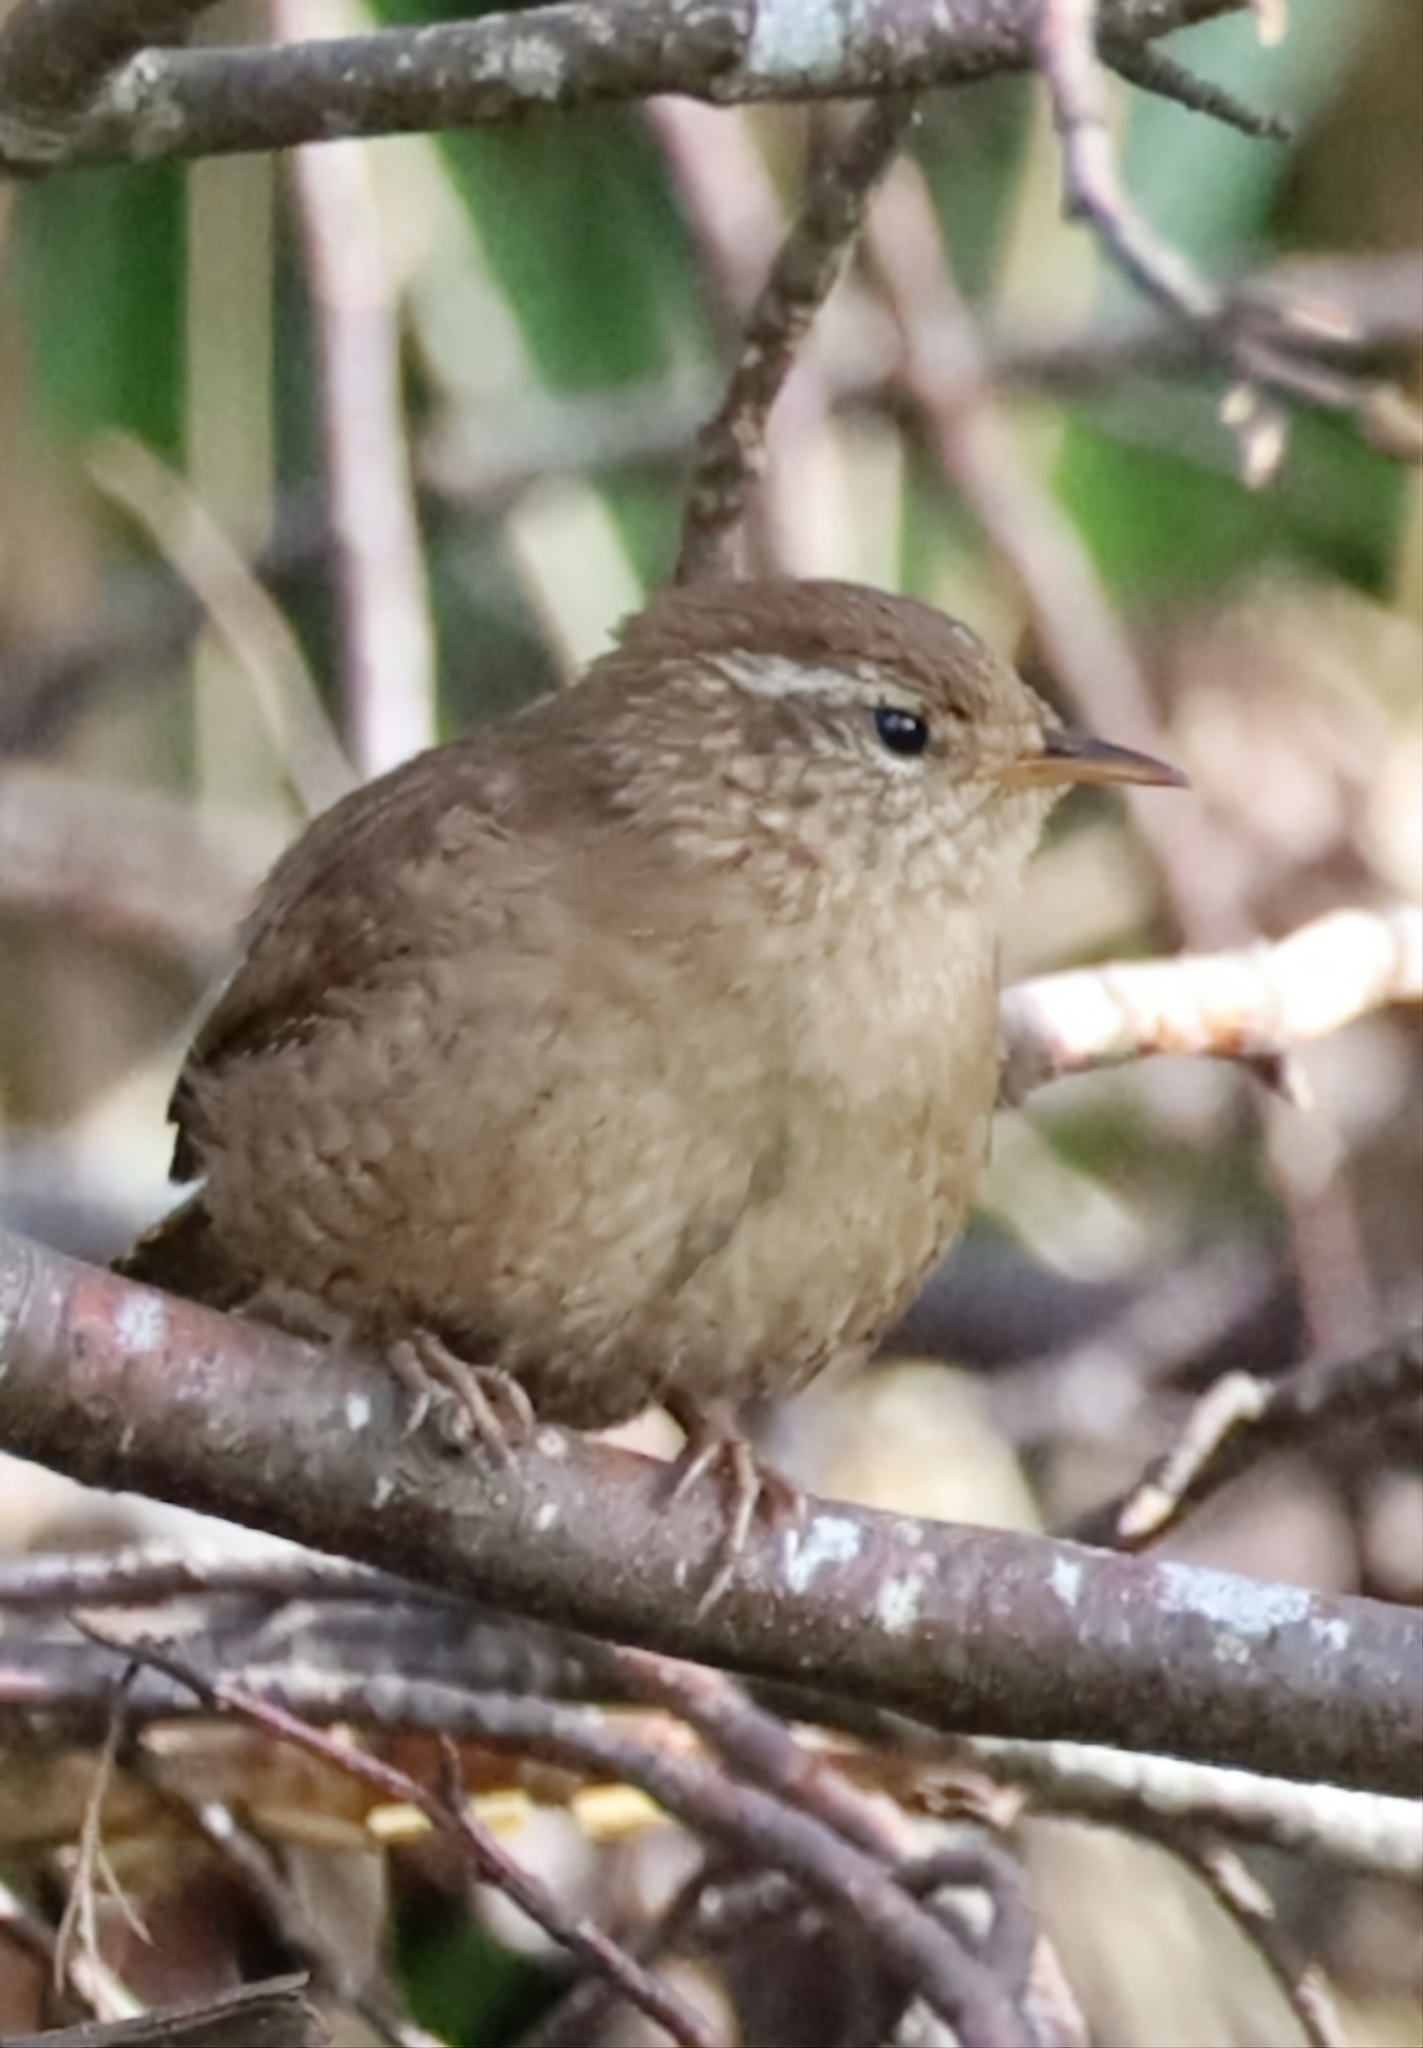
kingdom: Animalia
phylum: Chordata
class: Aves
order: Passeriformes
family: Troglodytidae
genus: Troglodytes
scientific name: Troglodytes troglodytes
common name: Eurasian wren
